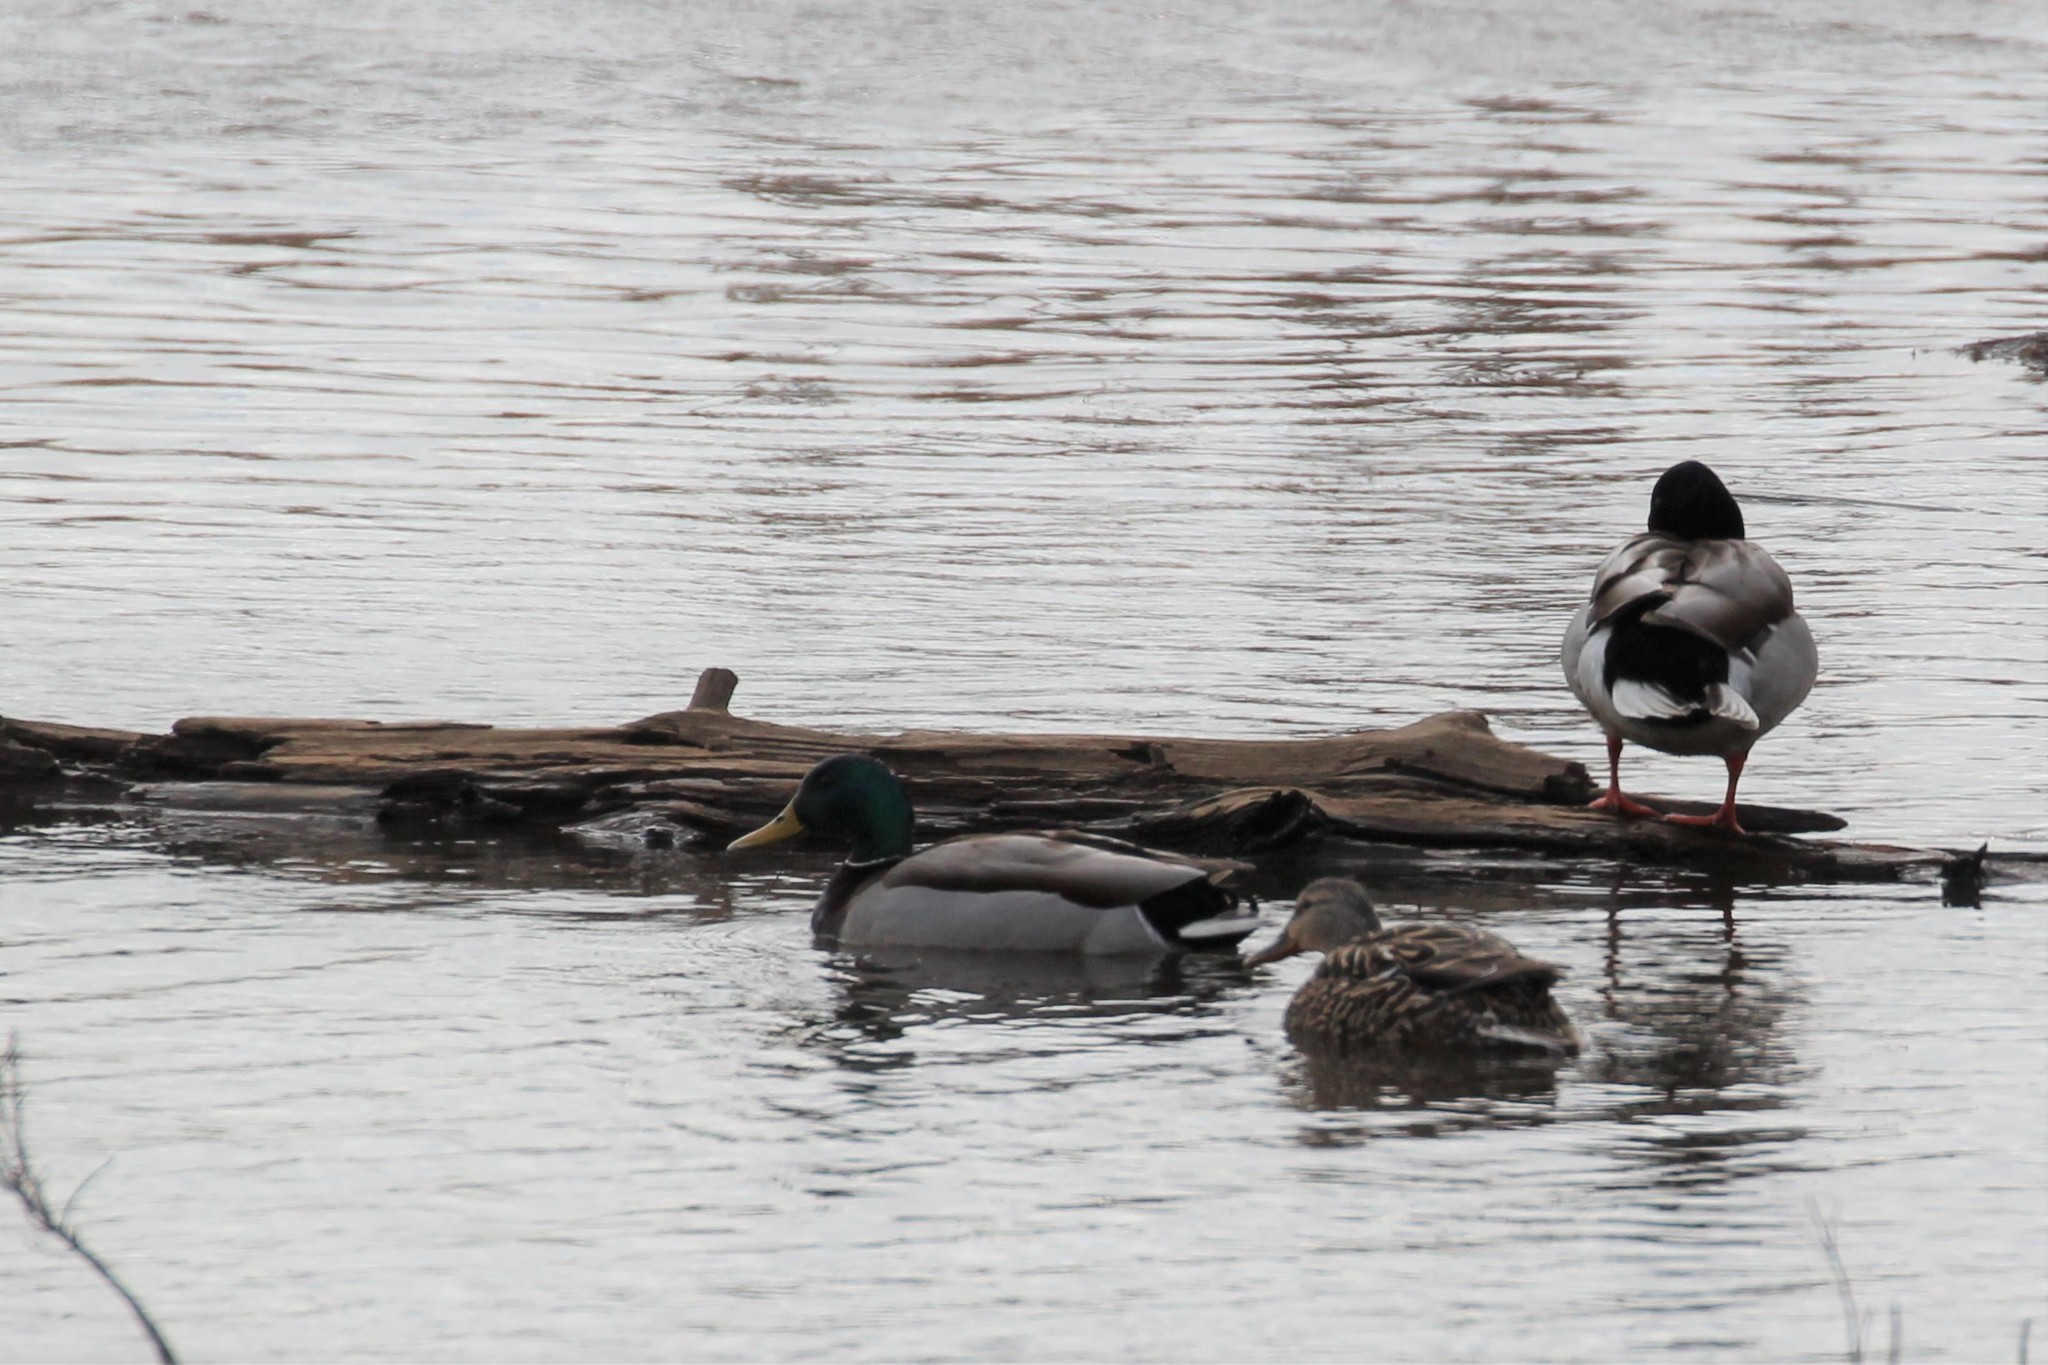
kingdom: Animalia
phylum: Chordata
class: Aves
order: Anseriformes
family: Anatidae
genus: Anas
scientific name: Anas platyrhynchos
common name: Mallard
